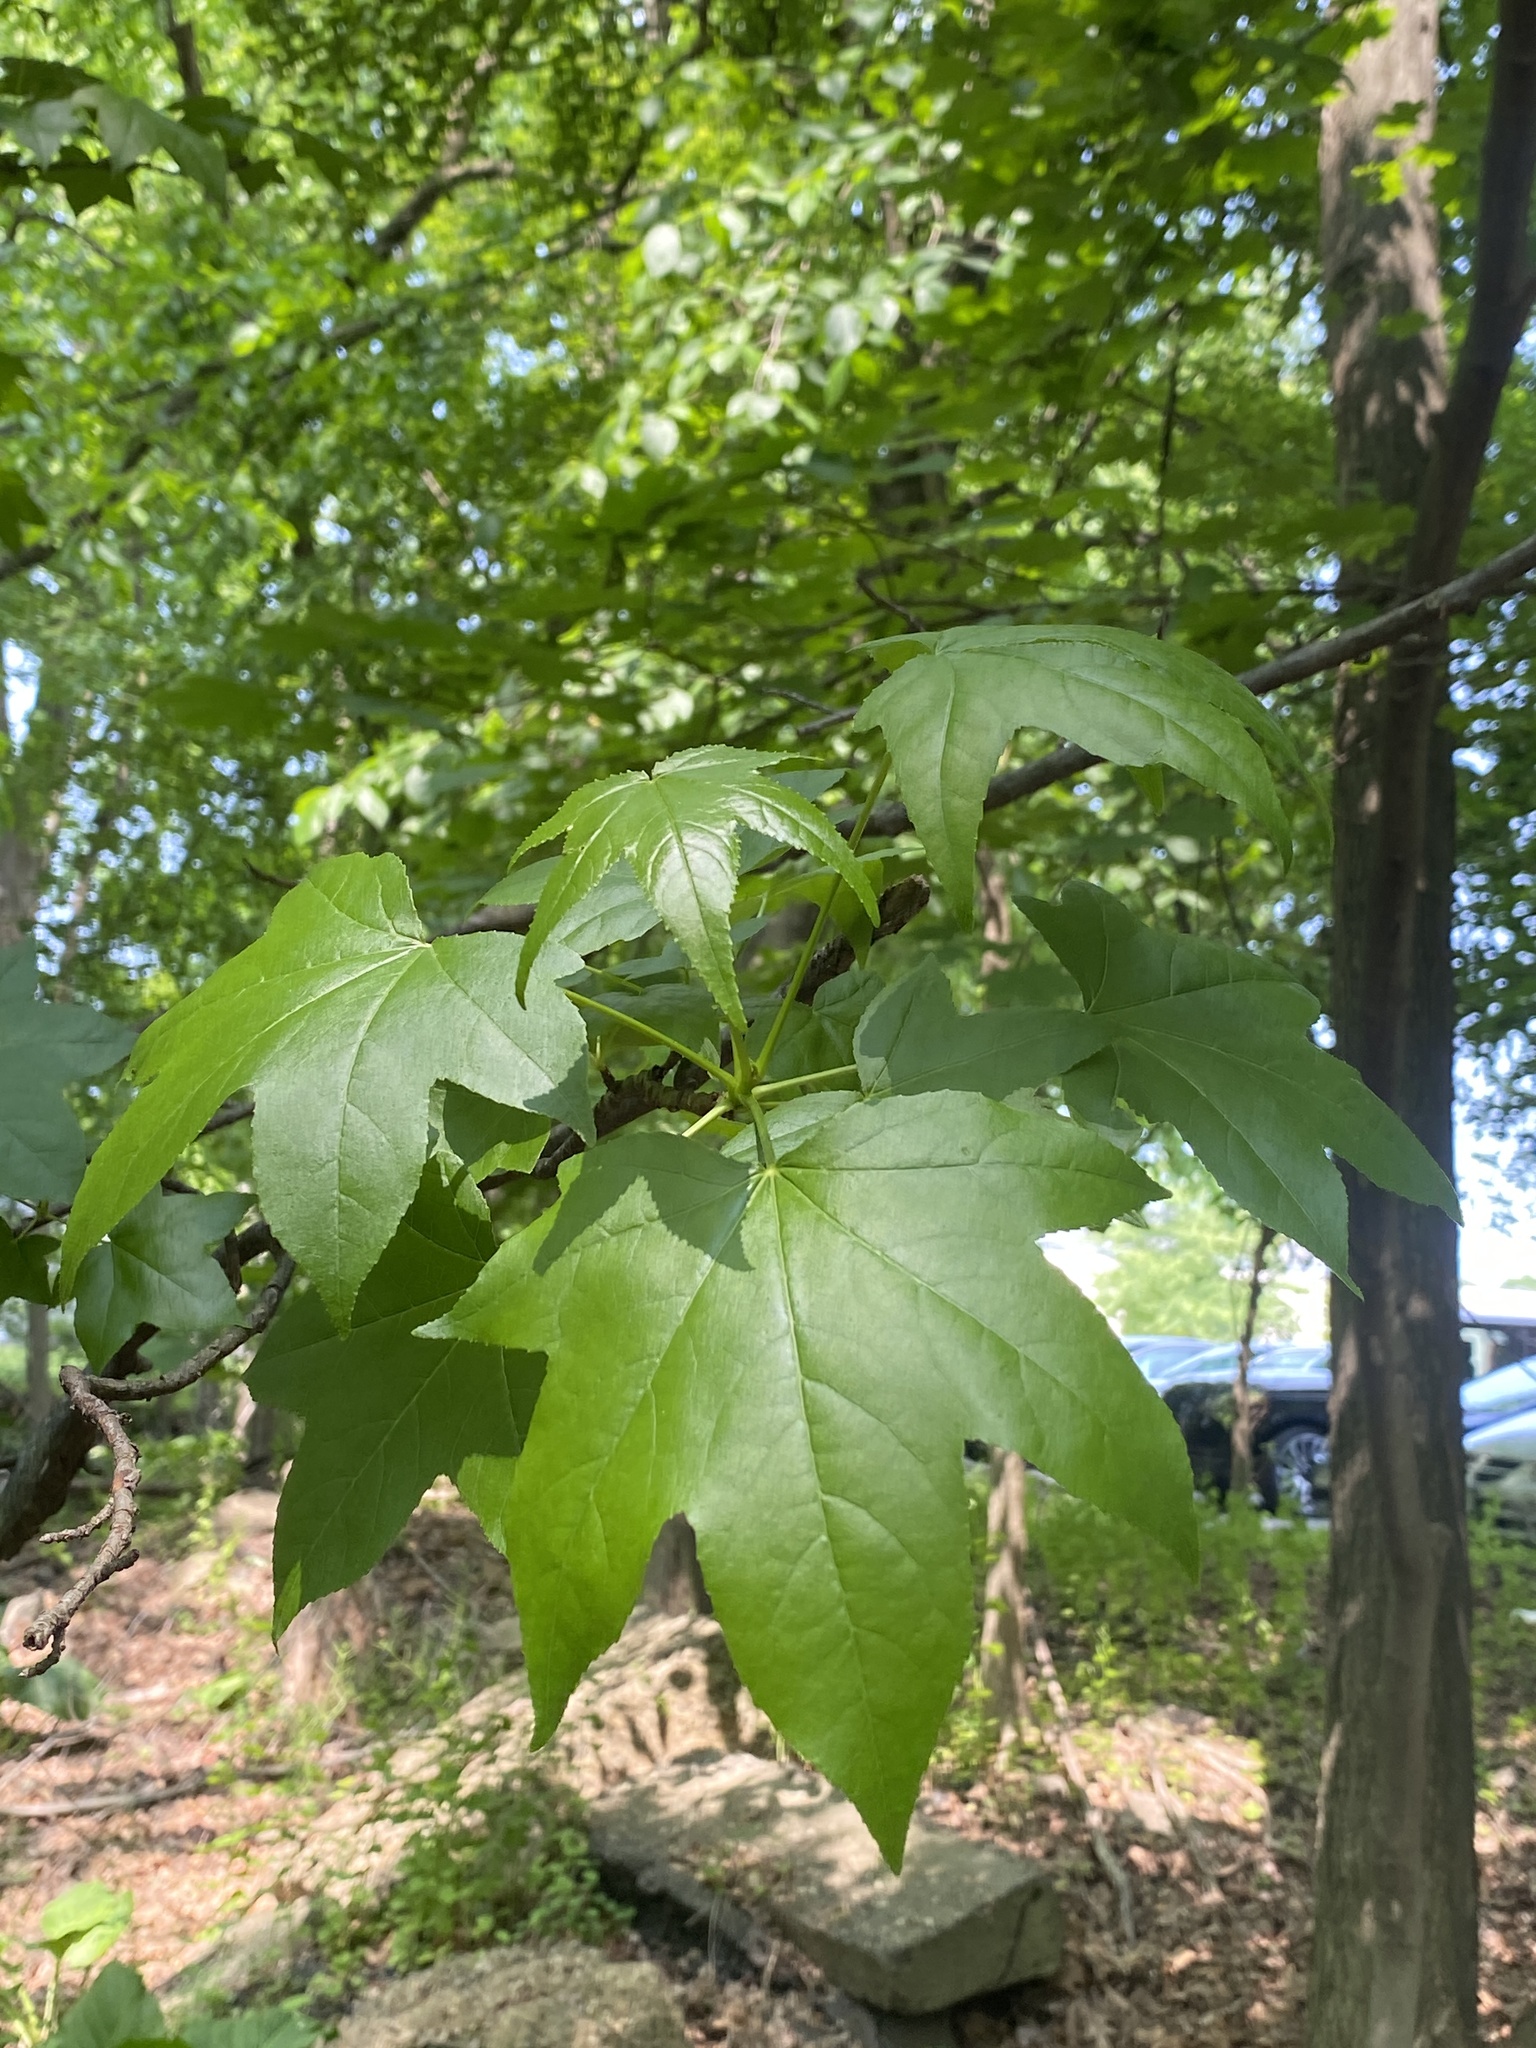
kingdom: Plantae
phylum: Tracheophyta
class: Magnoliopsida
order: Saxifragales
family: Altingiaceae
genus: Liquidambar
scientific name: Liquidambar styraciflua
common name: Sweet gum
